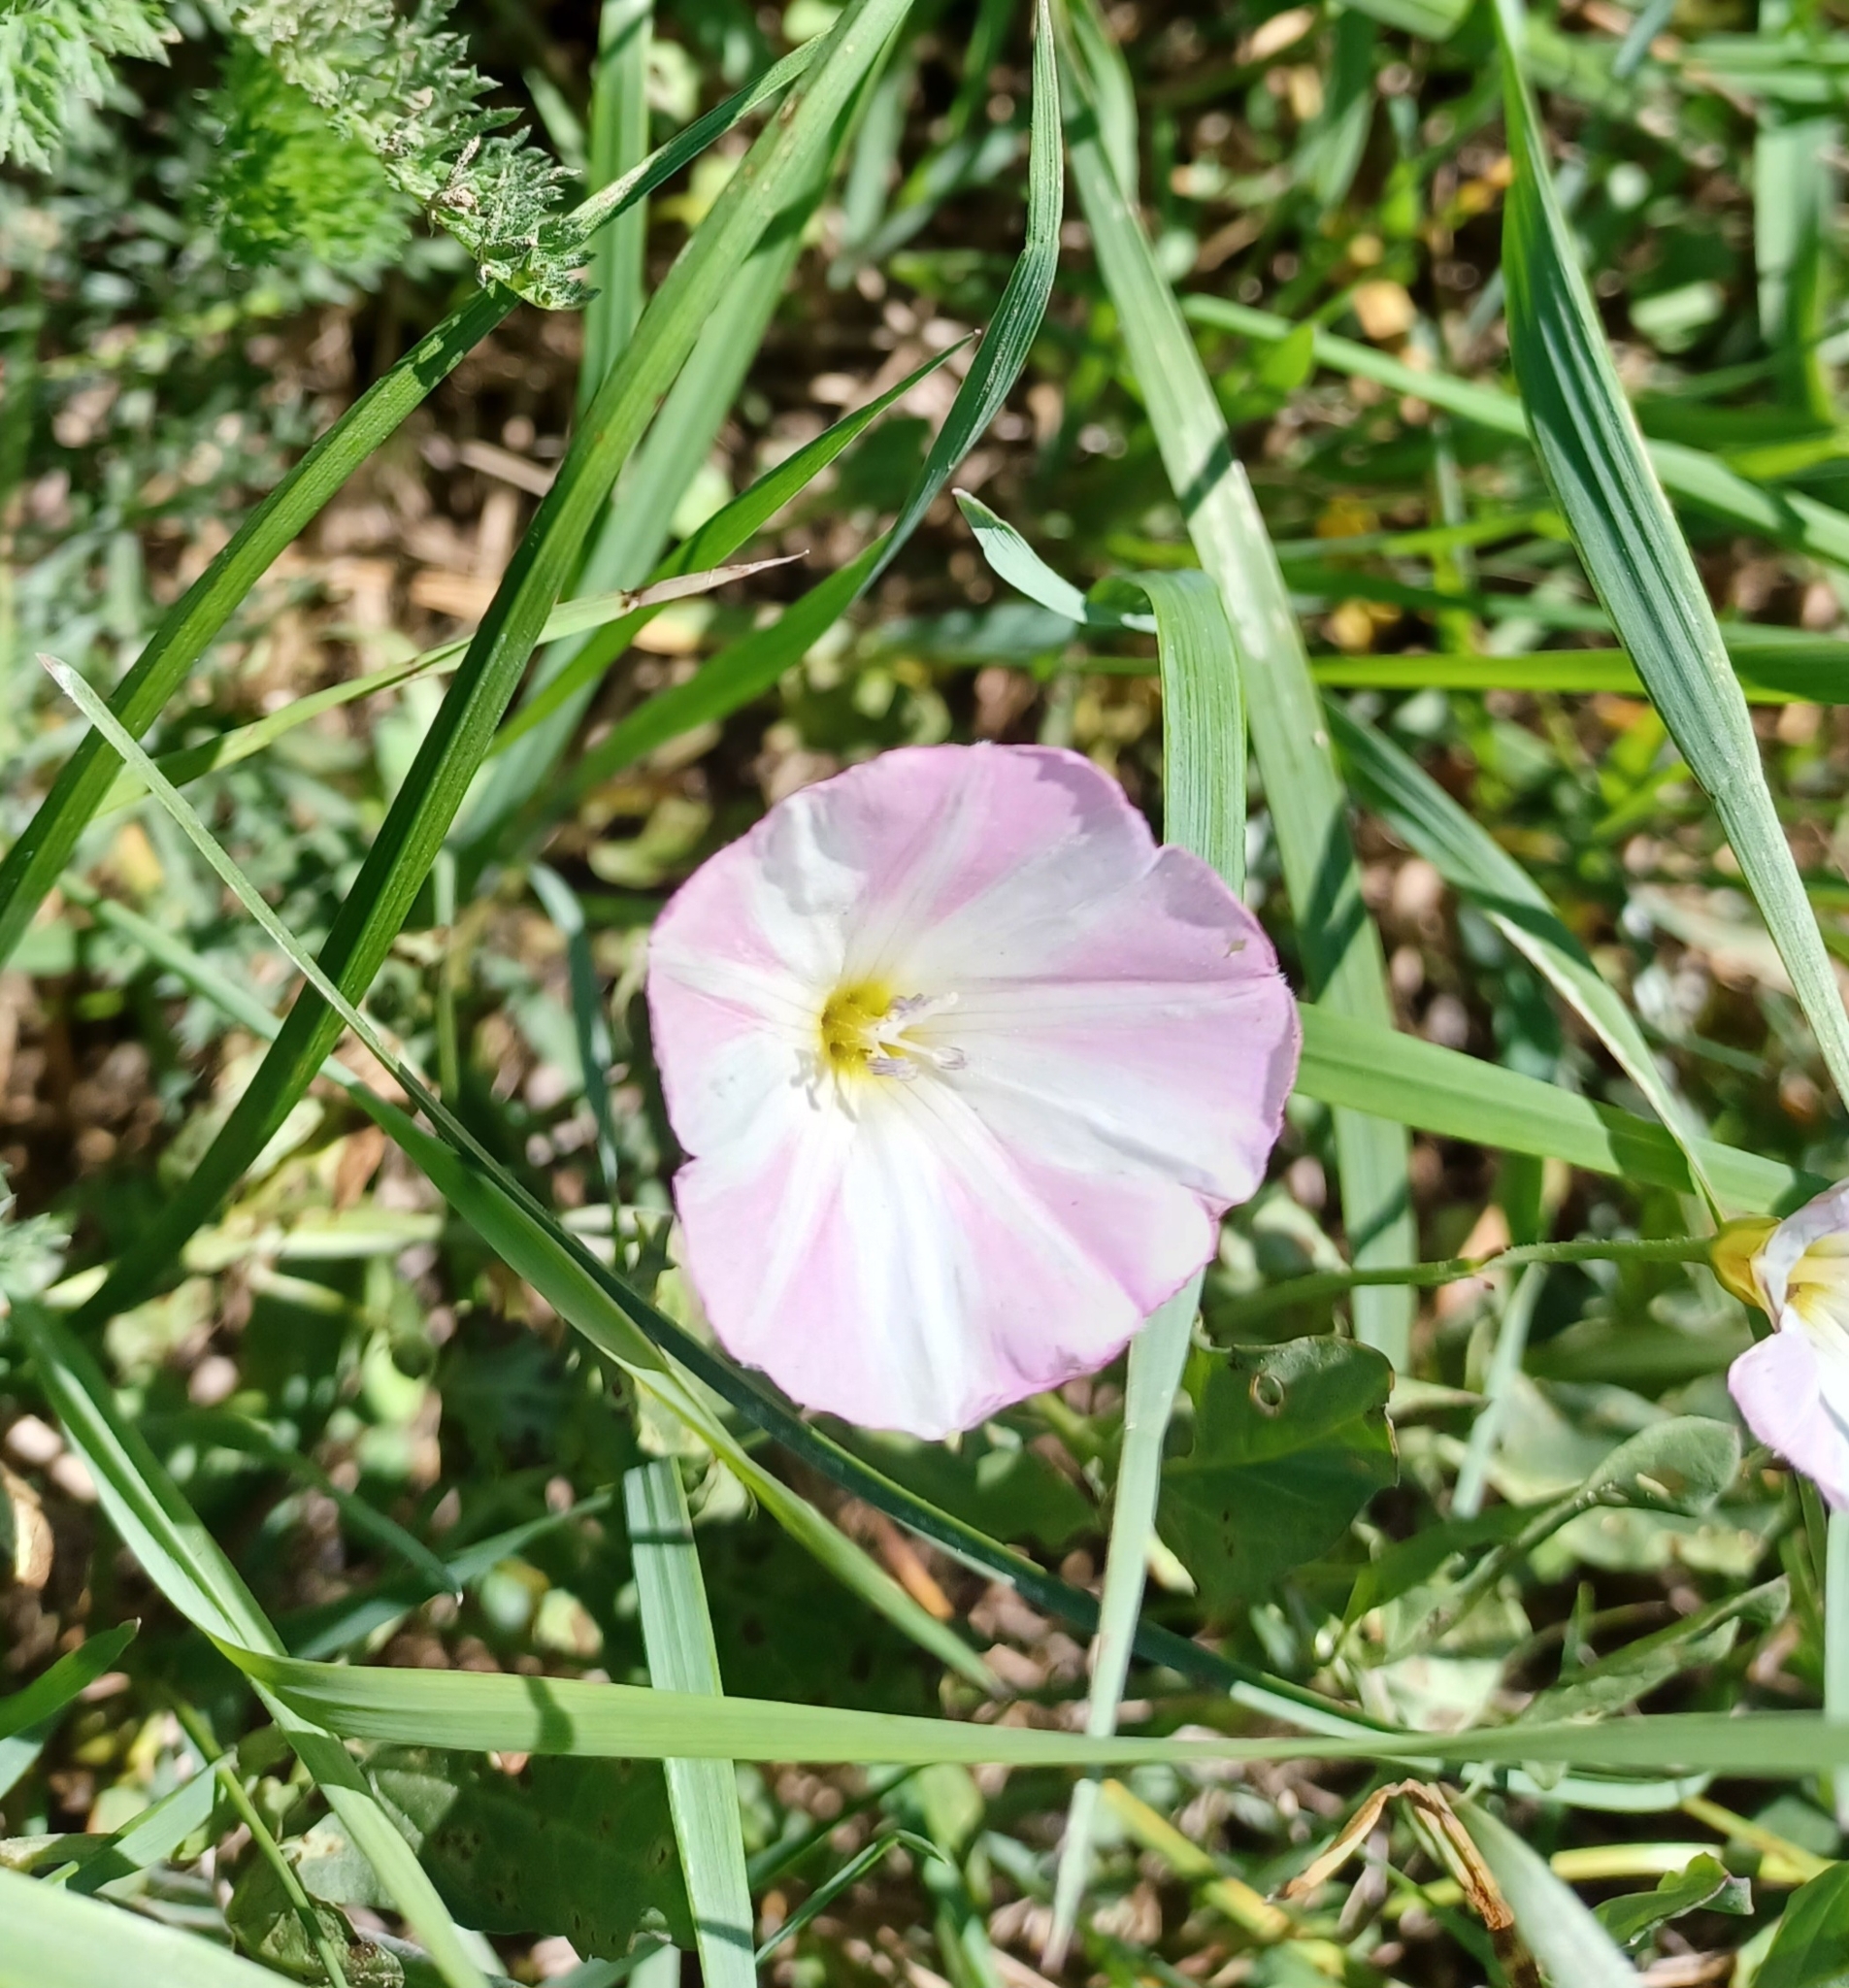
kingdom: Plantae
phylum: Tracheophyta
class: Magnoliopsida
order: Solanales
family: Convolvulaceae
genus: Convolvulus
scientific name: Convolvulus arvensis
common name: Field bindweed
